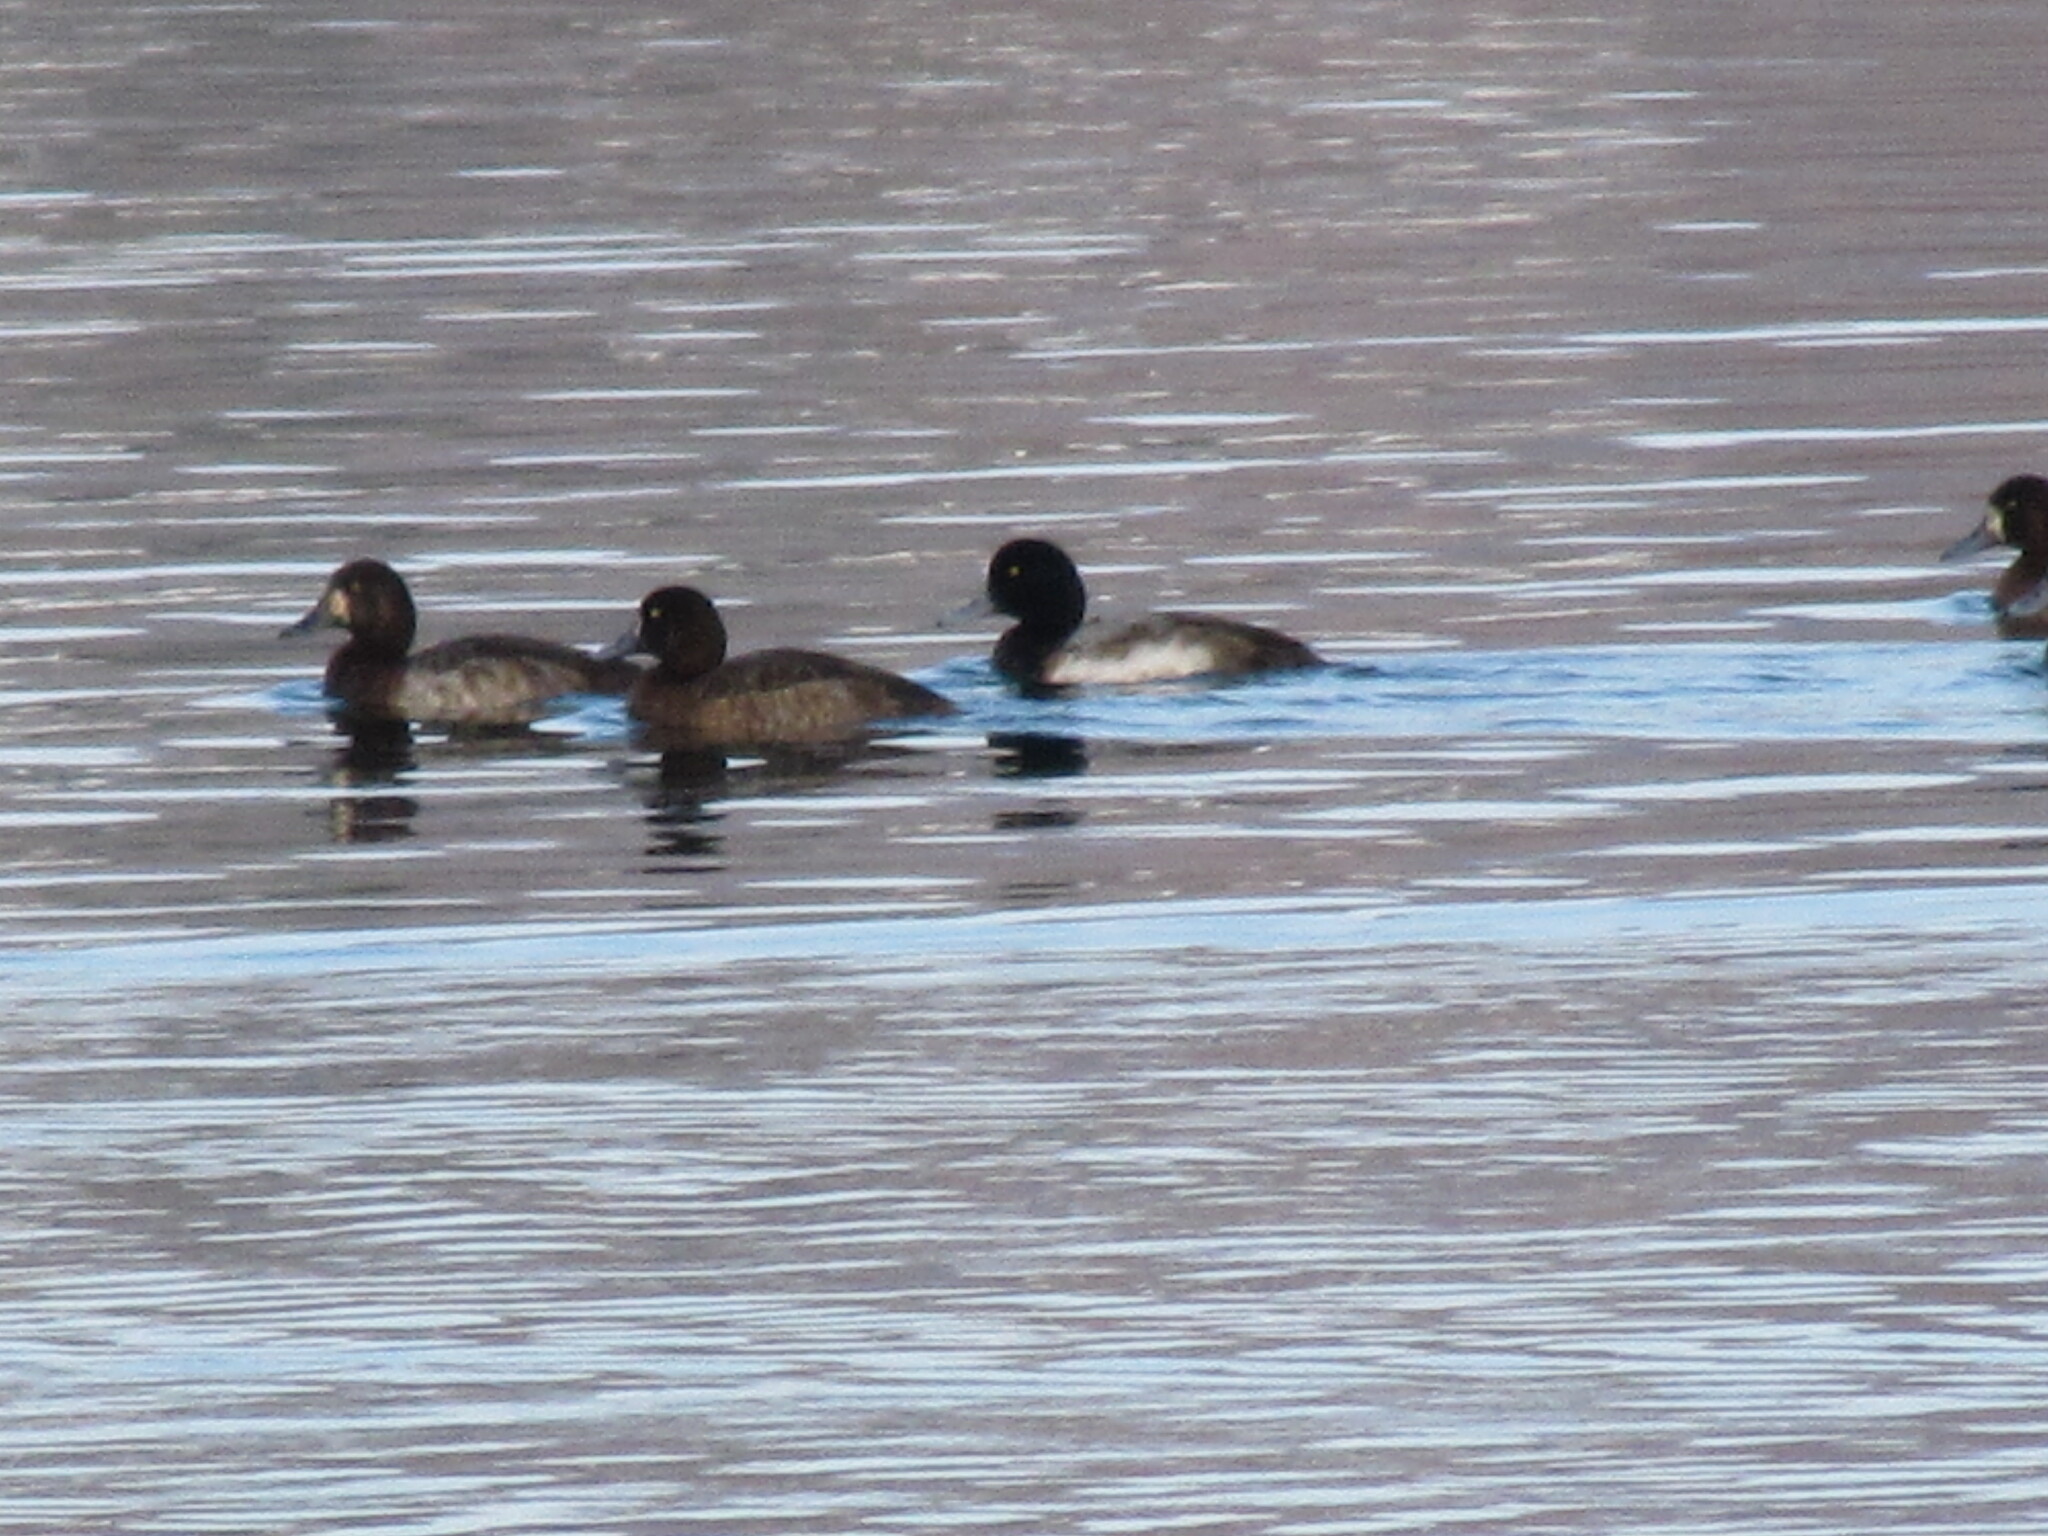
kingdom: Animalia
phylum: Chordata
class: Aves
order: Anseriformes
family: Anatidae
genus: Aythya
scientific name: Aythya marila
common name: Greater scaup
